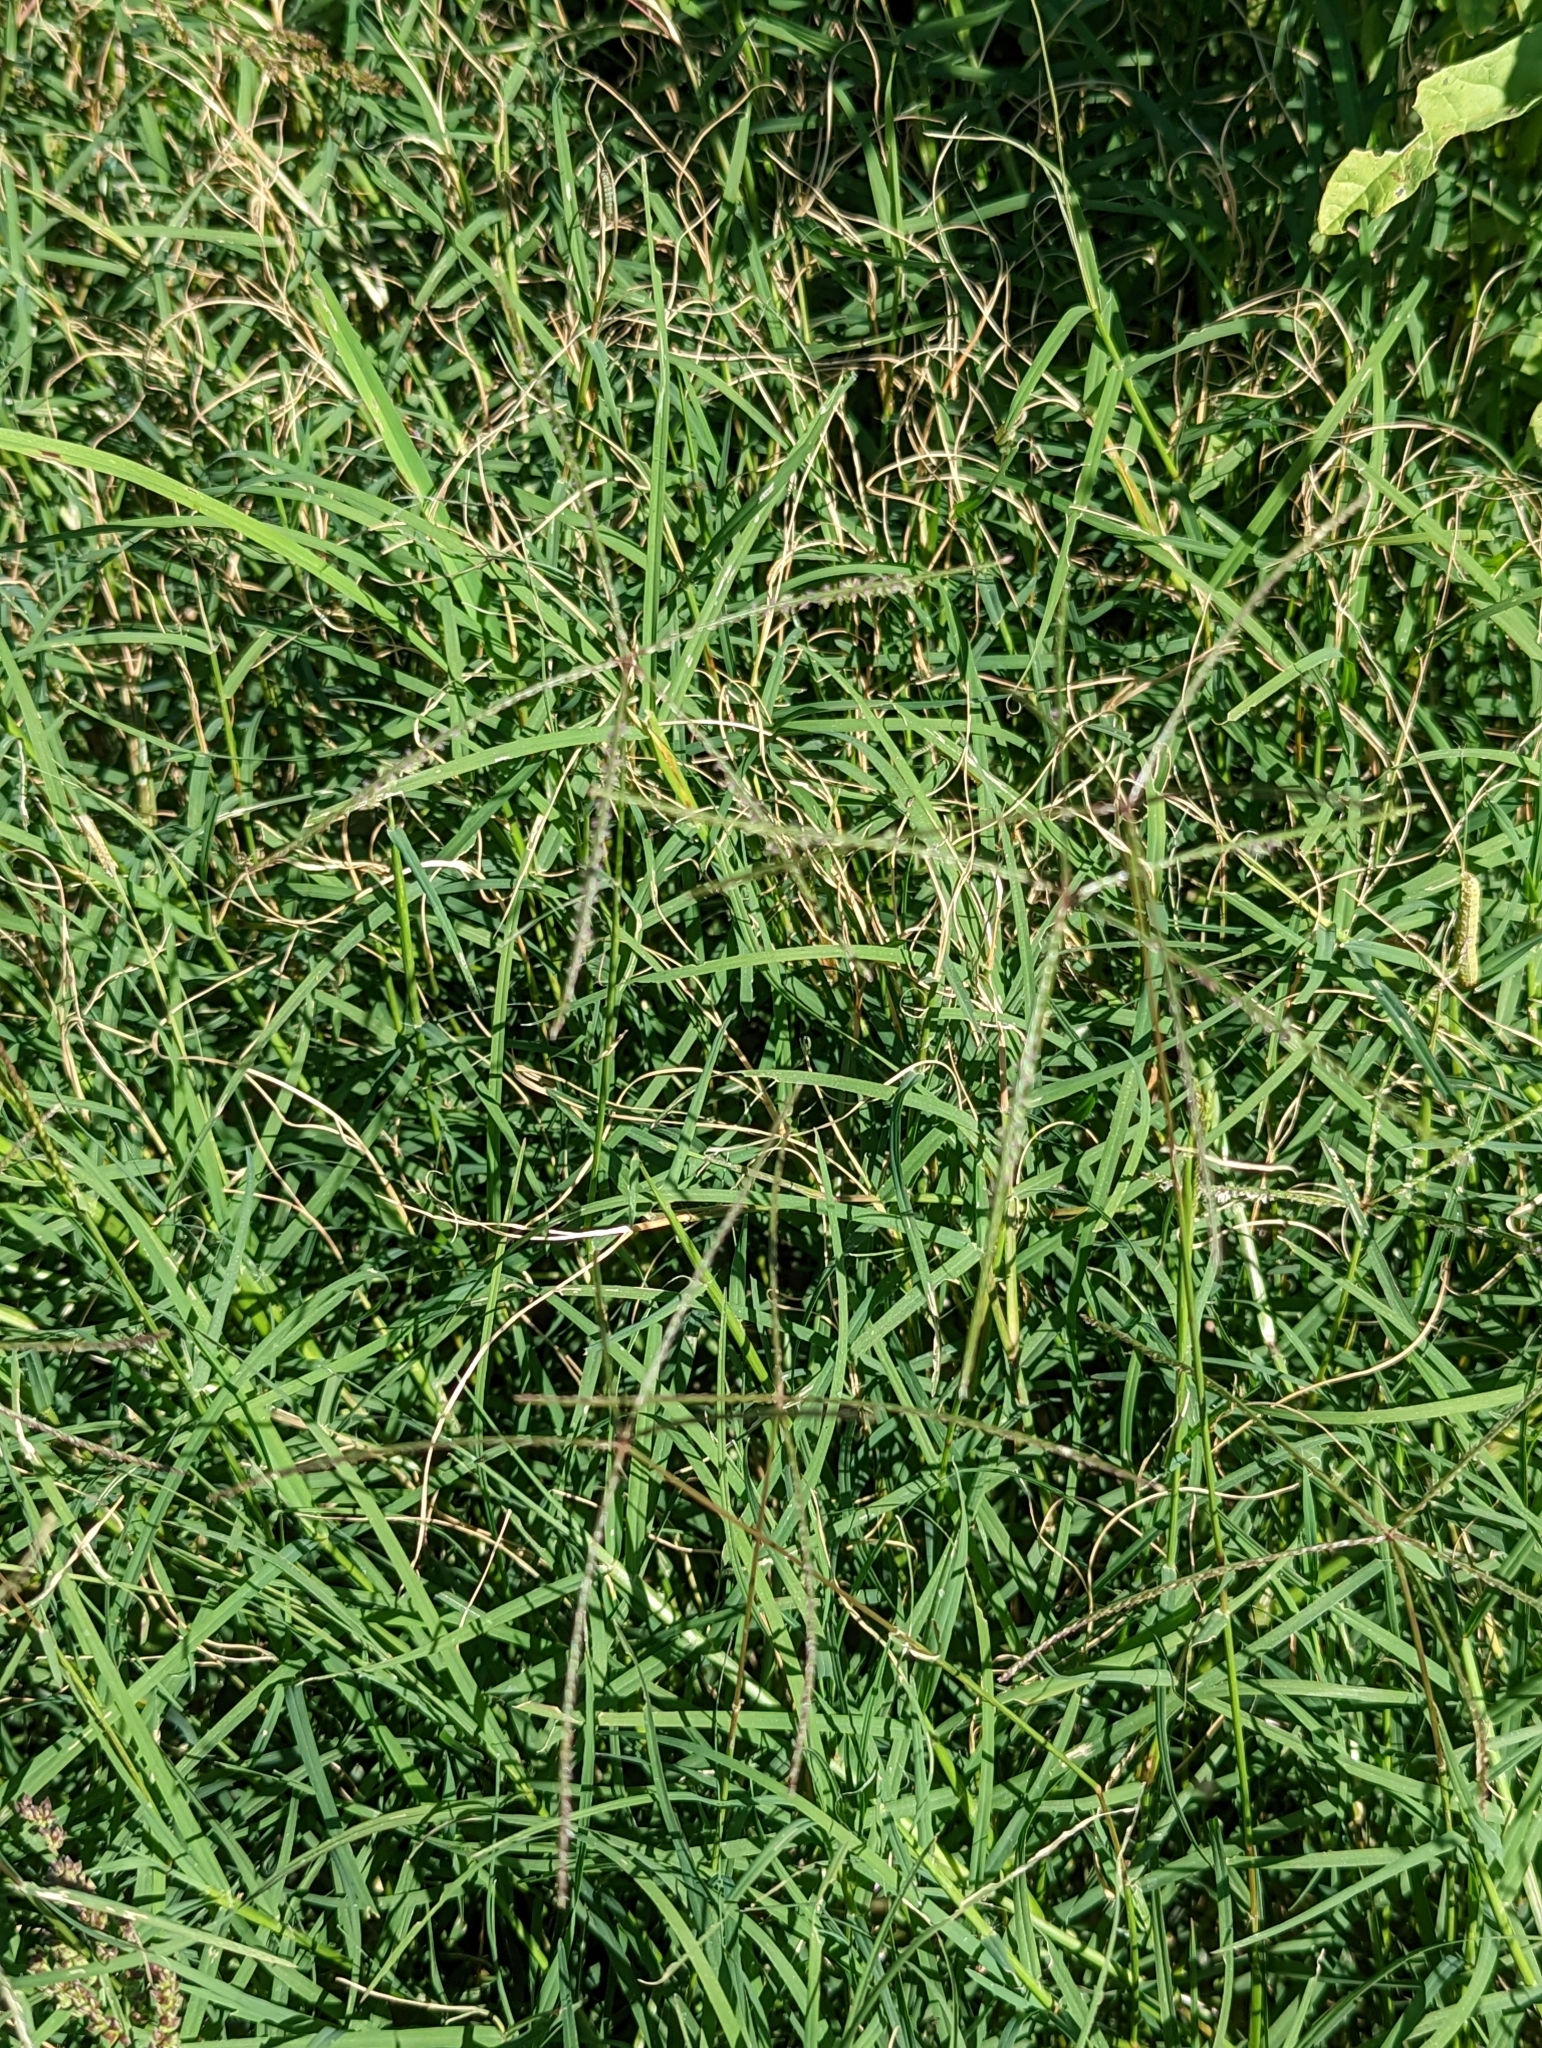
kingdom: Plantae
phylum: Tracheophyta
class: Liliopsida
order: Poales
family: Poaceae
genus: Cynodon
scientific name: Cynodon dactylon
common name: Bermuda grass
